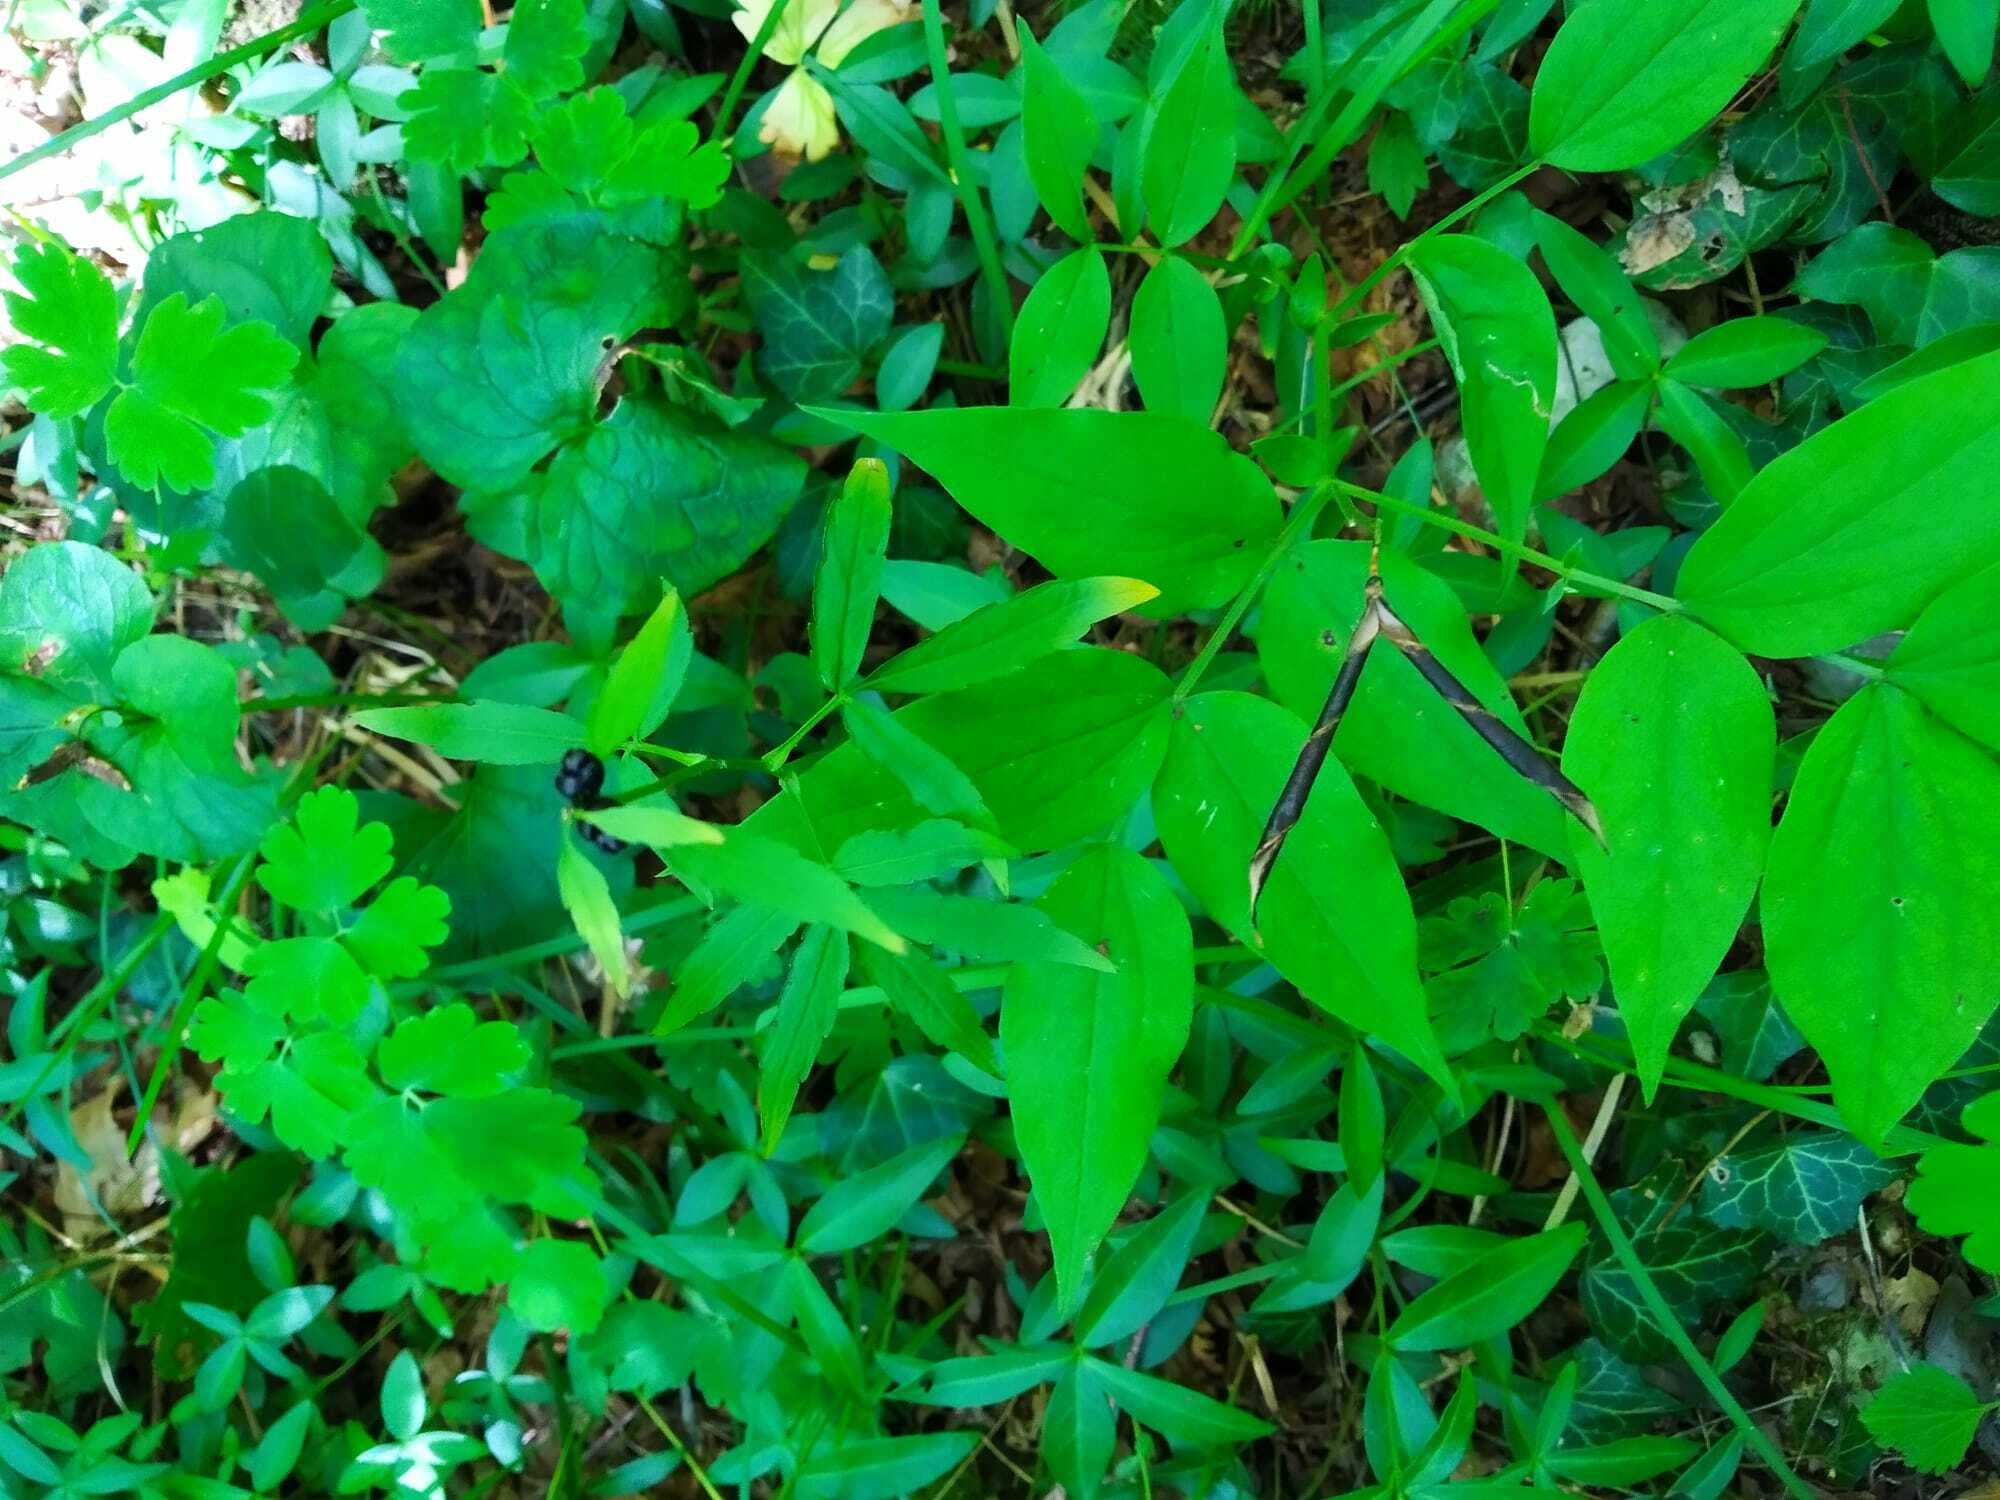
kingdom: Plantae
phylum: Tracheophyta
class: Magnoliopsida
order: Fabales
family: Fabaceae
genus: Lathyrus
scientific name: Lathyrus vernus
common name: Spring pea
